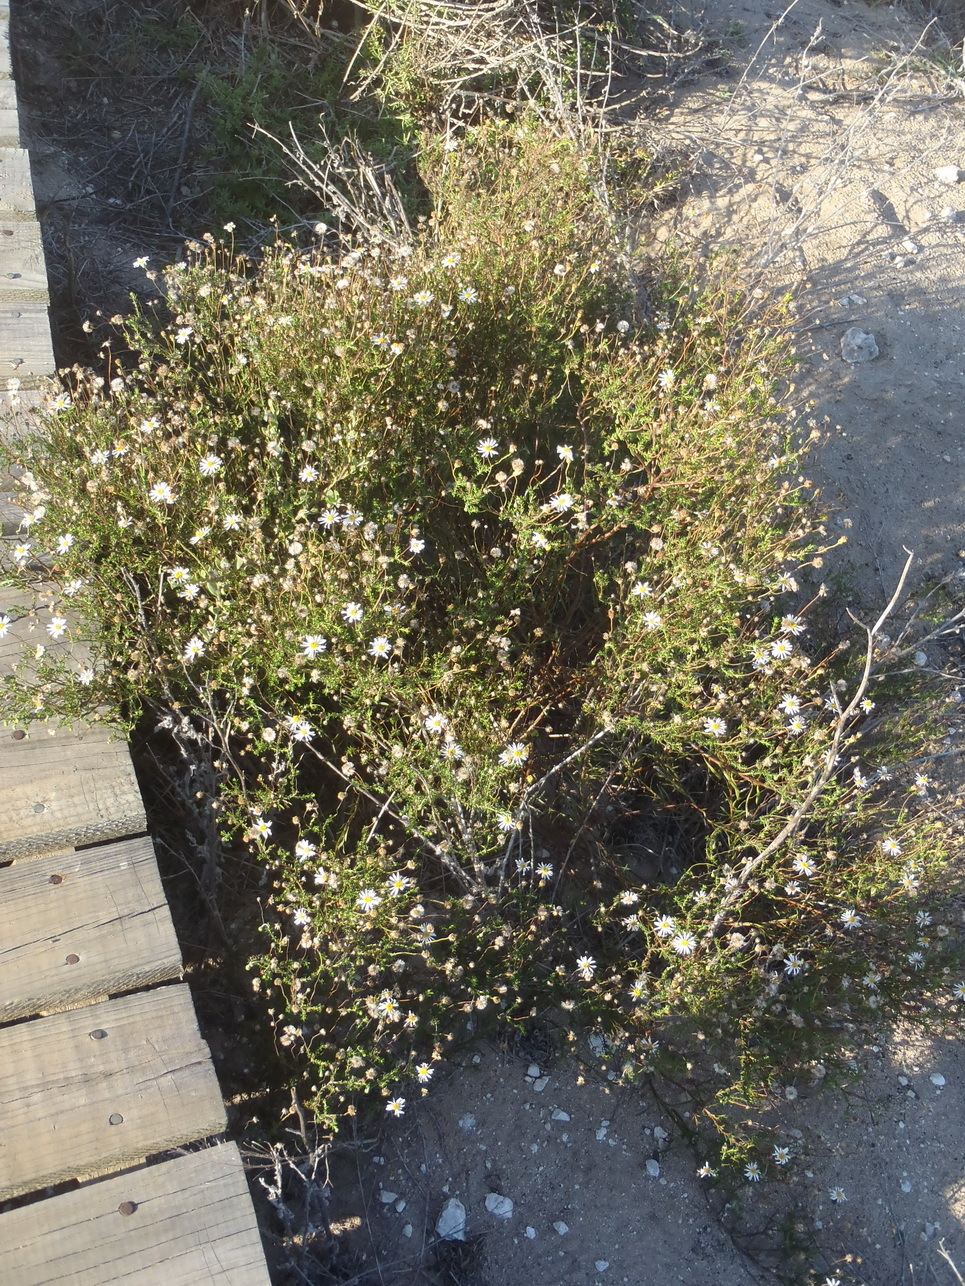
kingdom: Plantae
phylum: Tracheophyta
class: Magnoliopsida
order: Asterales
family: Asteraceae
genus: Felicia
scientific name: Felicia hyssopifolia
